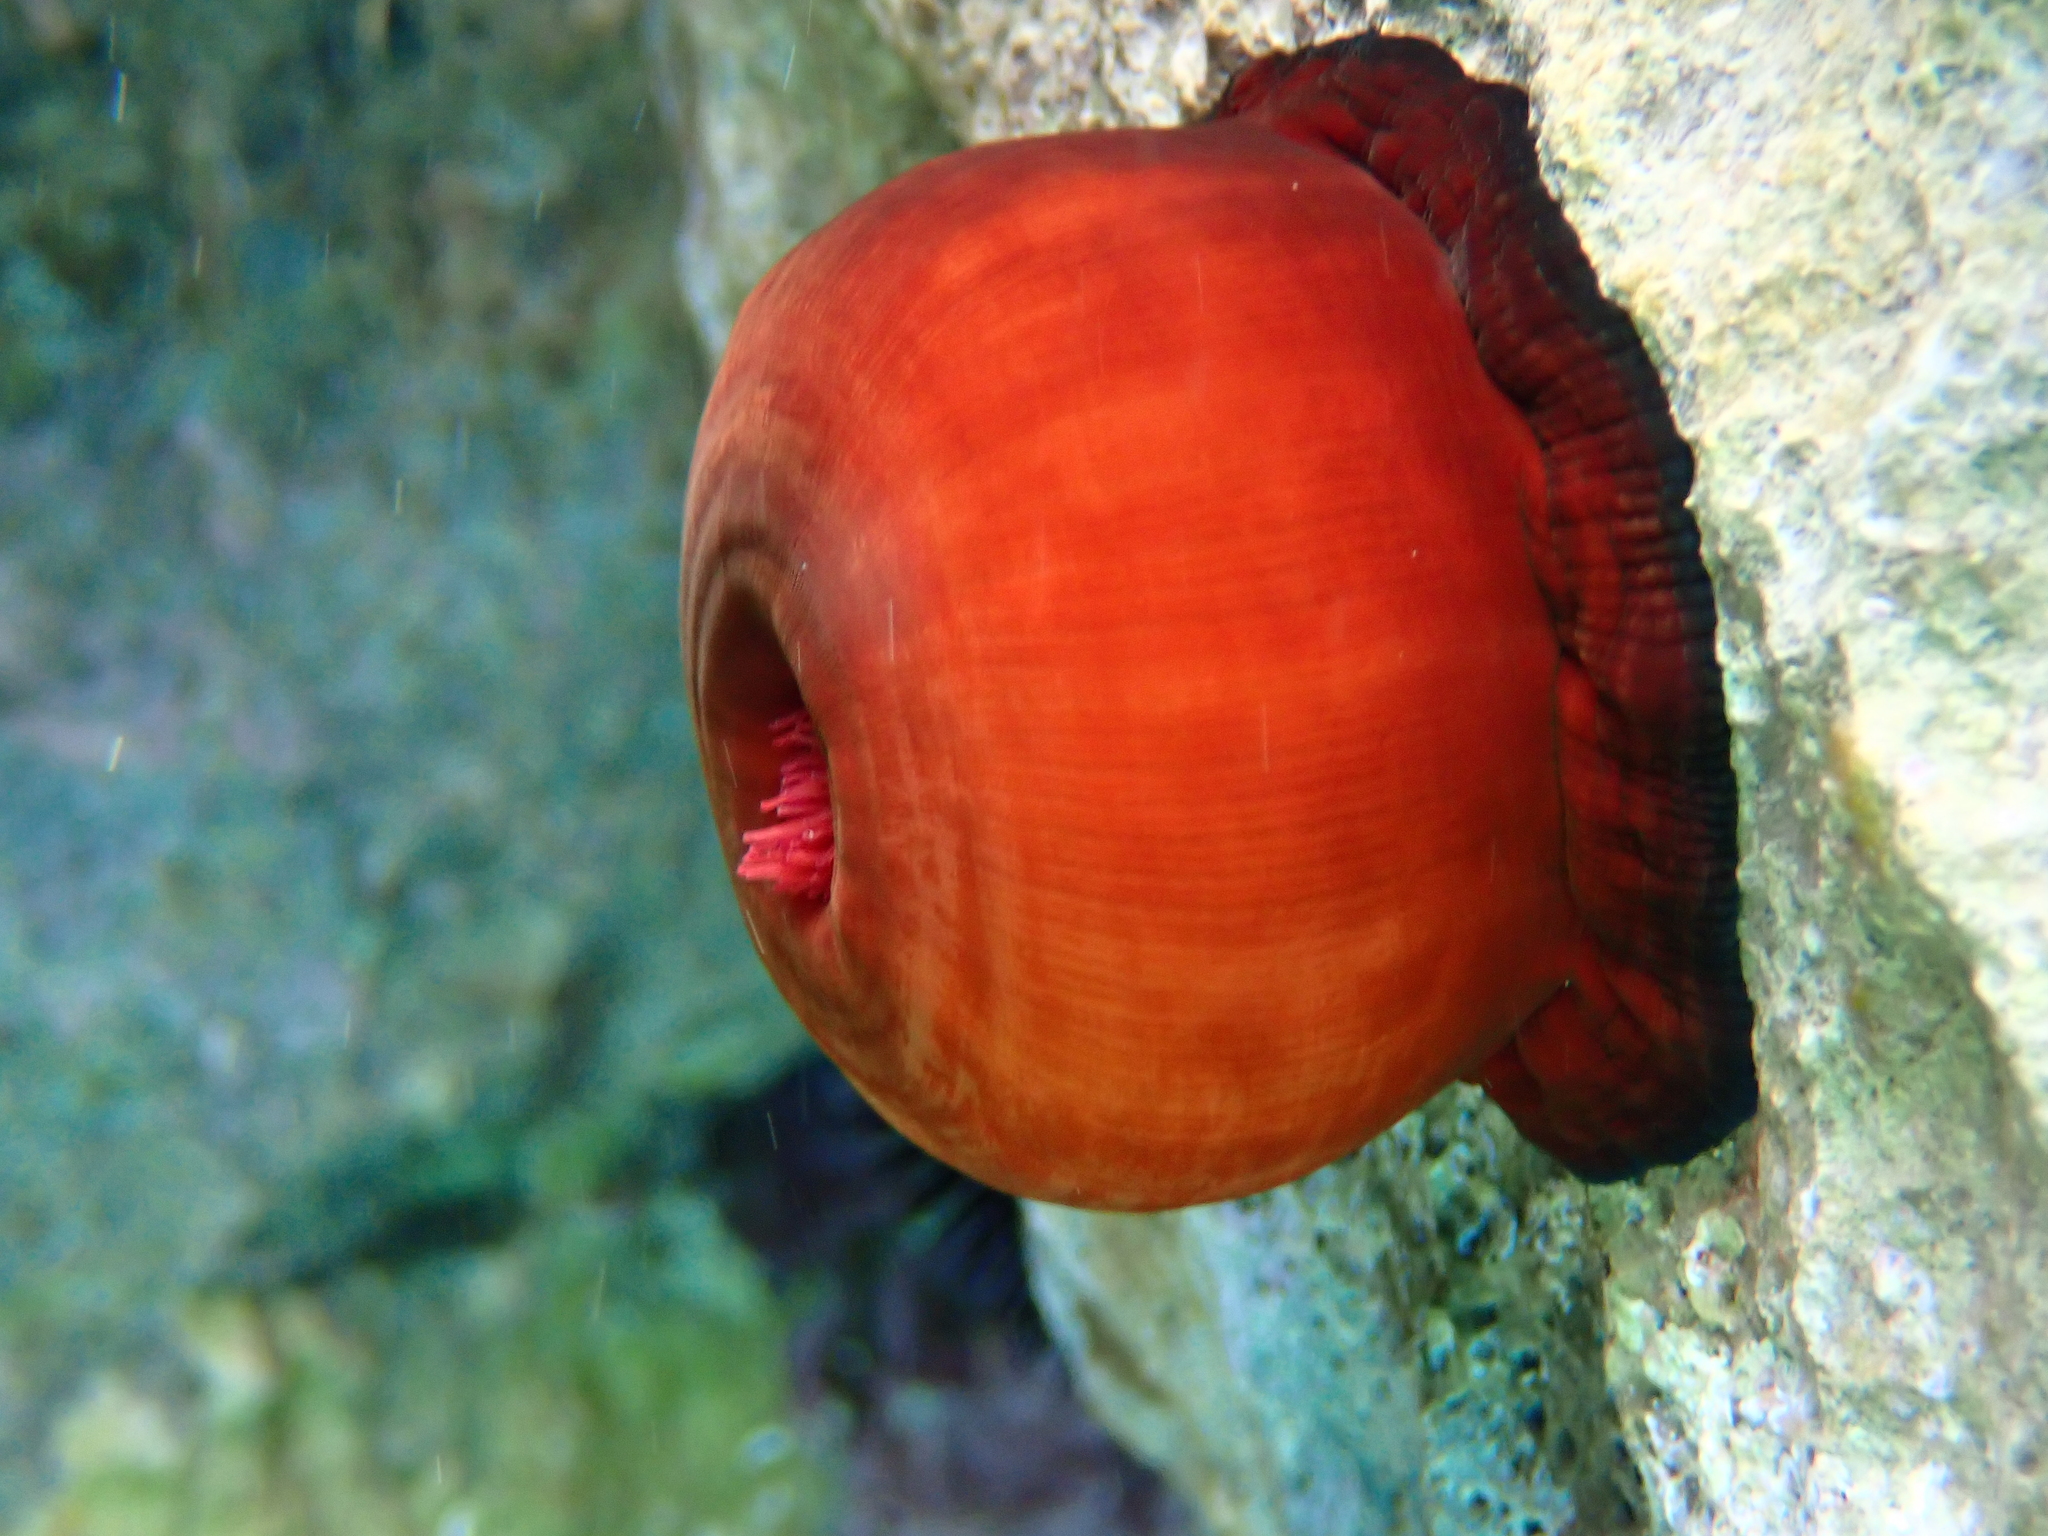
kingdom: Animalia
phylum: Cnidaria
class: Anthozoa
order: Actiniaria
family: Actiniidae
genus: Actinia
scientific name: Actinia mediterranea
